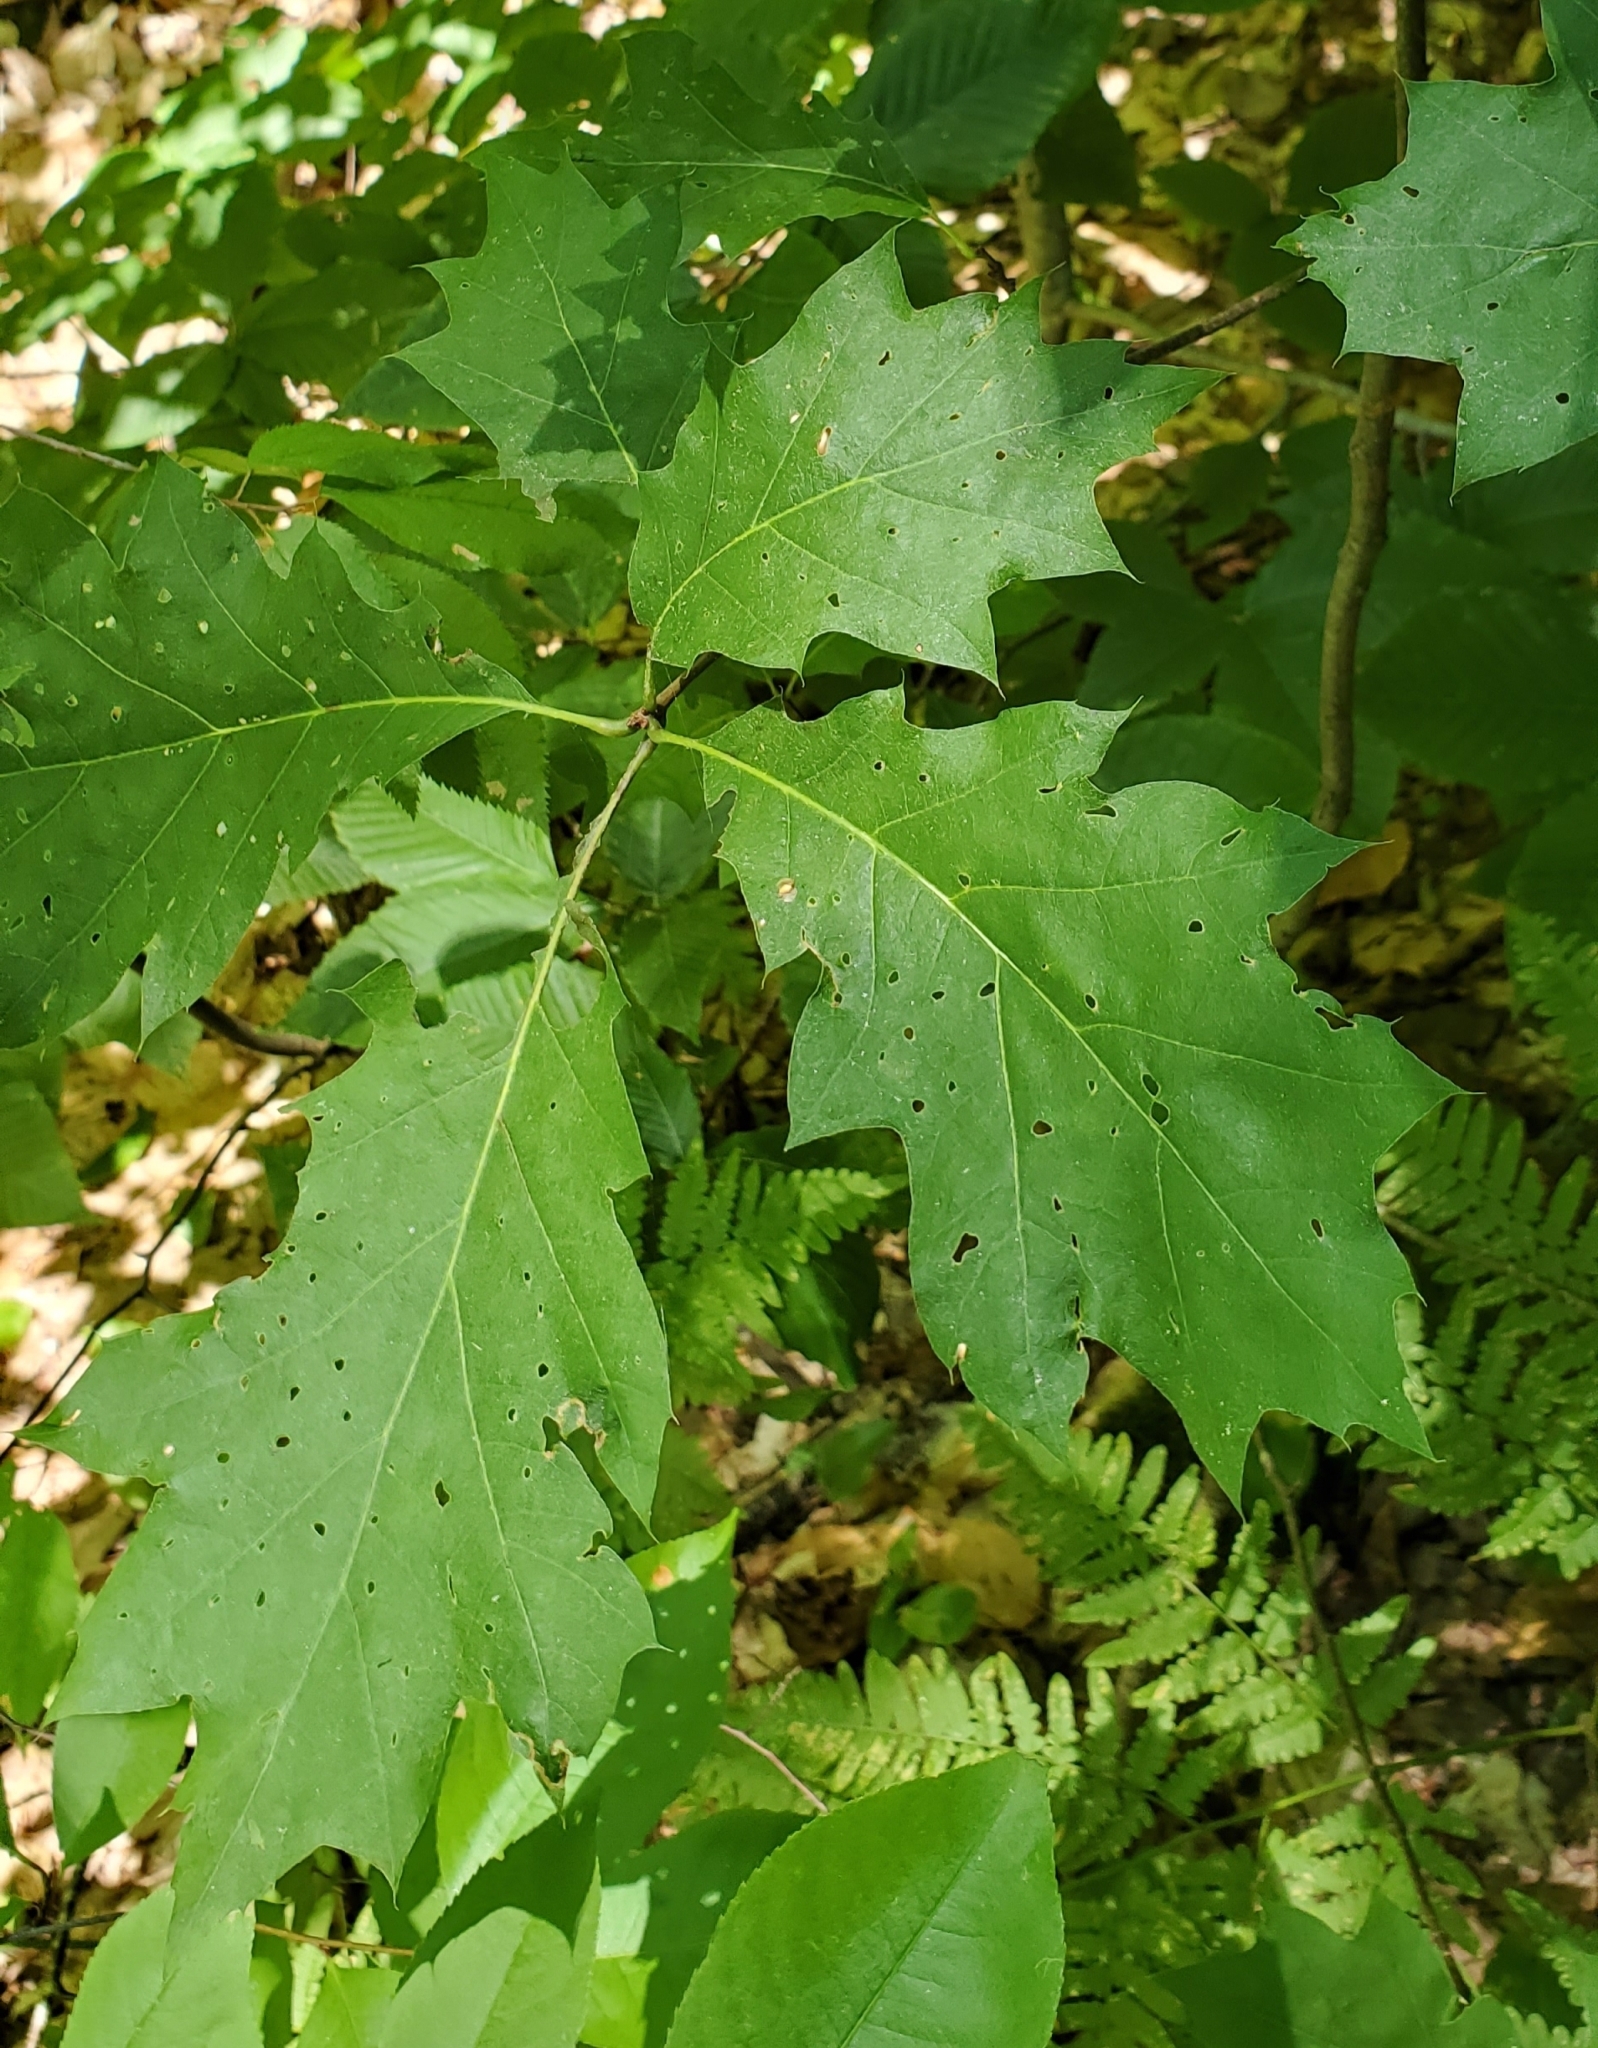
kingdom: Plantae
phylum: Tracheophyta
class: Magnoliopsida
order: Fagales
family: Fagaceae
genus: Quercus
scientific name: Quercus rubra
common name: Red oak
